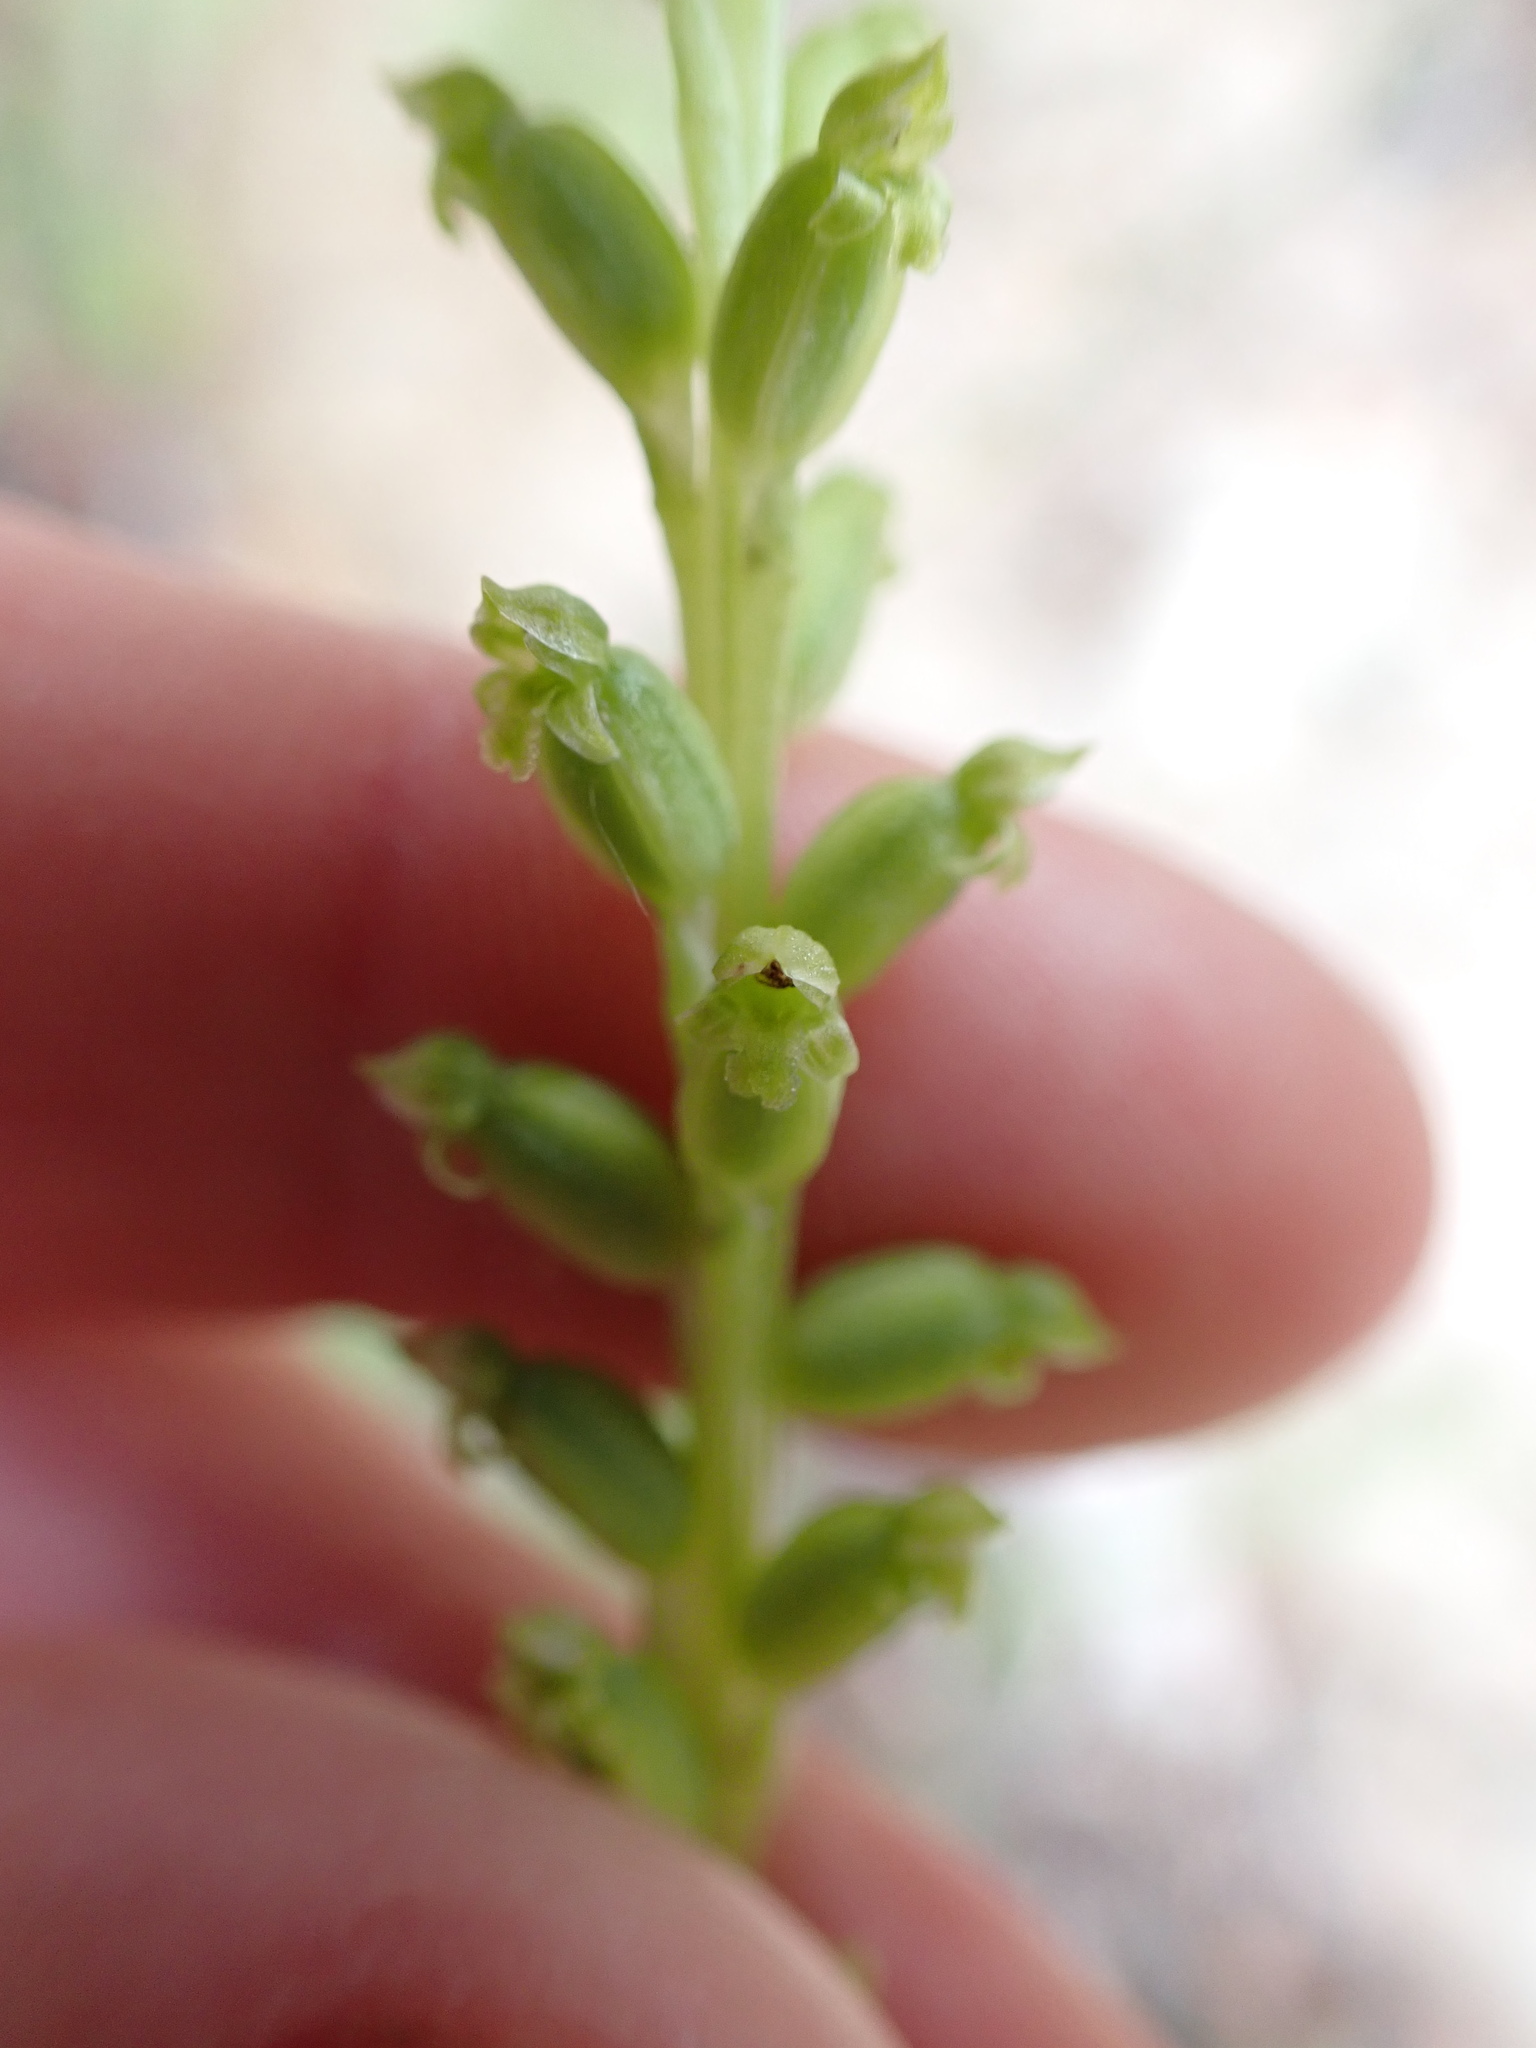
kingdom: Plantae
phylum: Tracheophyta
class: Liliopsida
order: Asparagales
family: Orchidaceae
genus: Microtis
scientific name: Microtis unifolia
